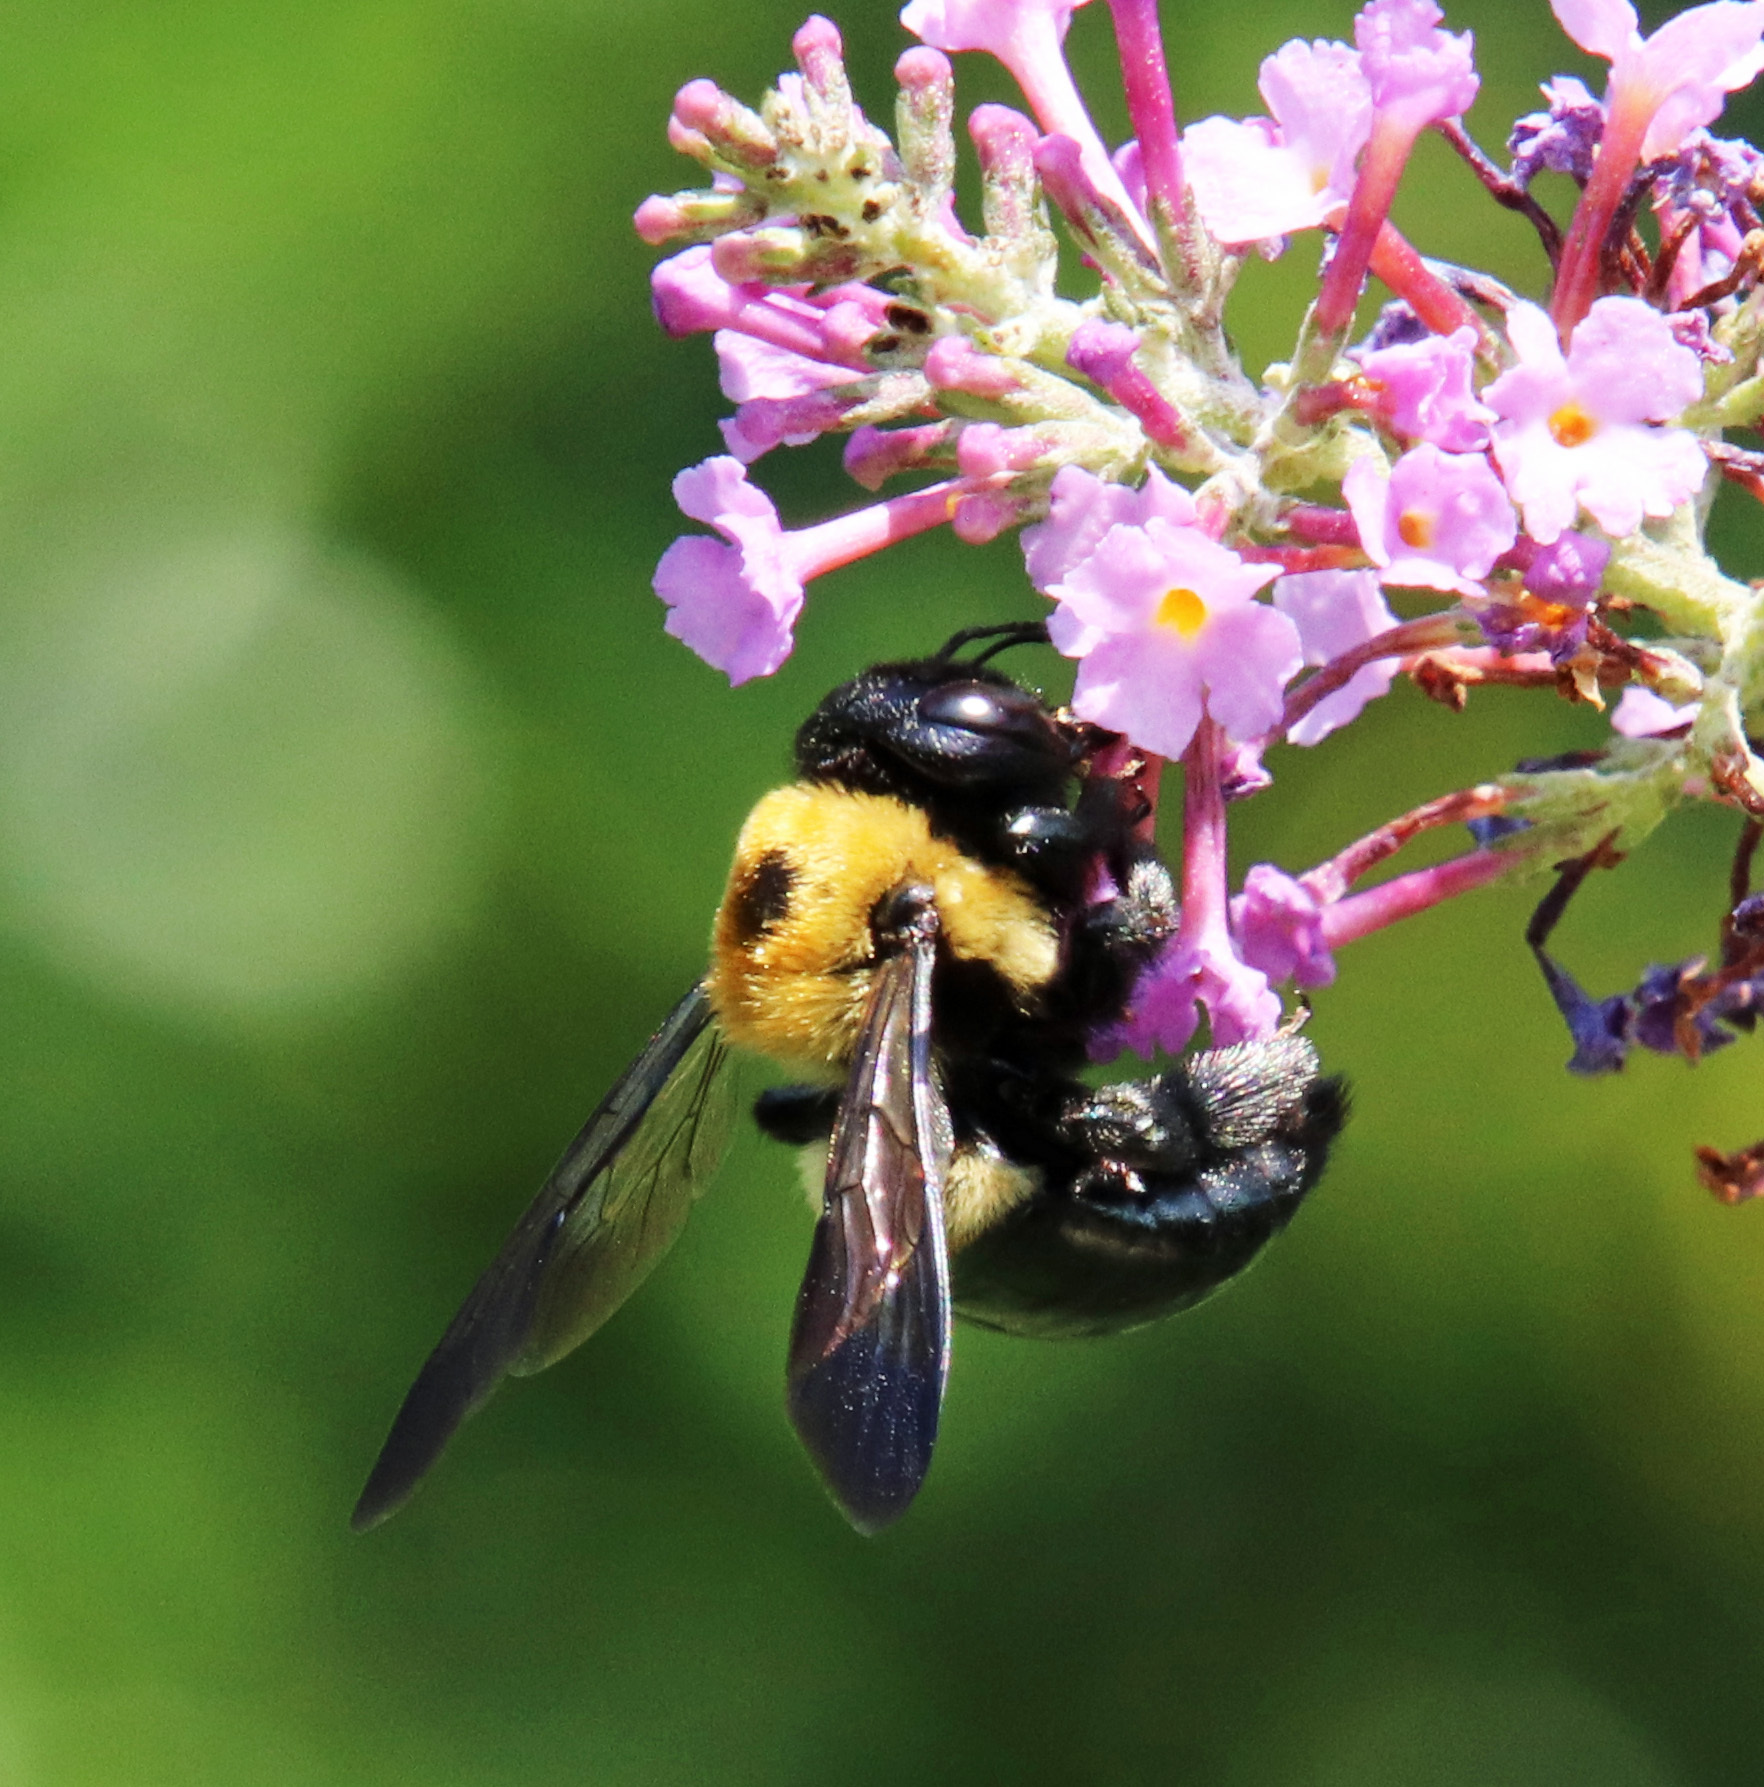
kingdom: Animalia
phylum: Arthropoda
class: Insecta
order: Hymenoptera
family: Apidae
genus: Xylocopa
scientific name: Xylocopa virginica
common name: Carpenter bee
